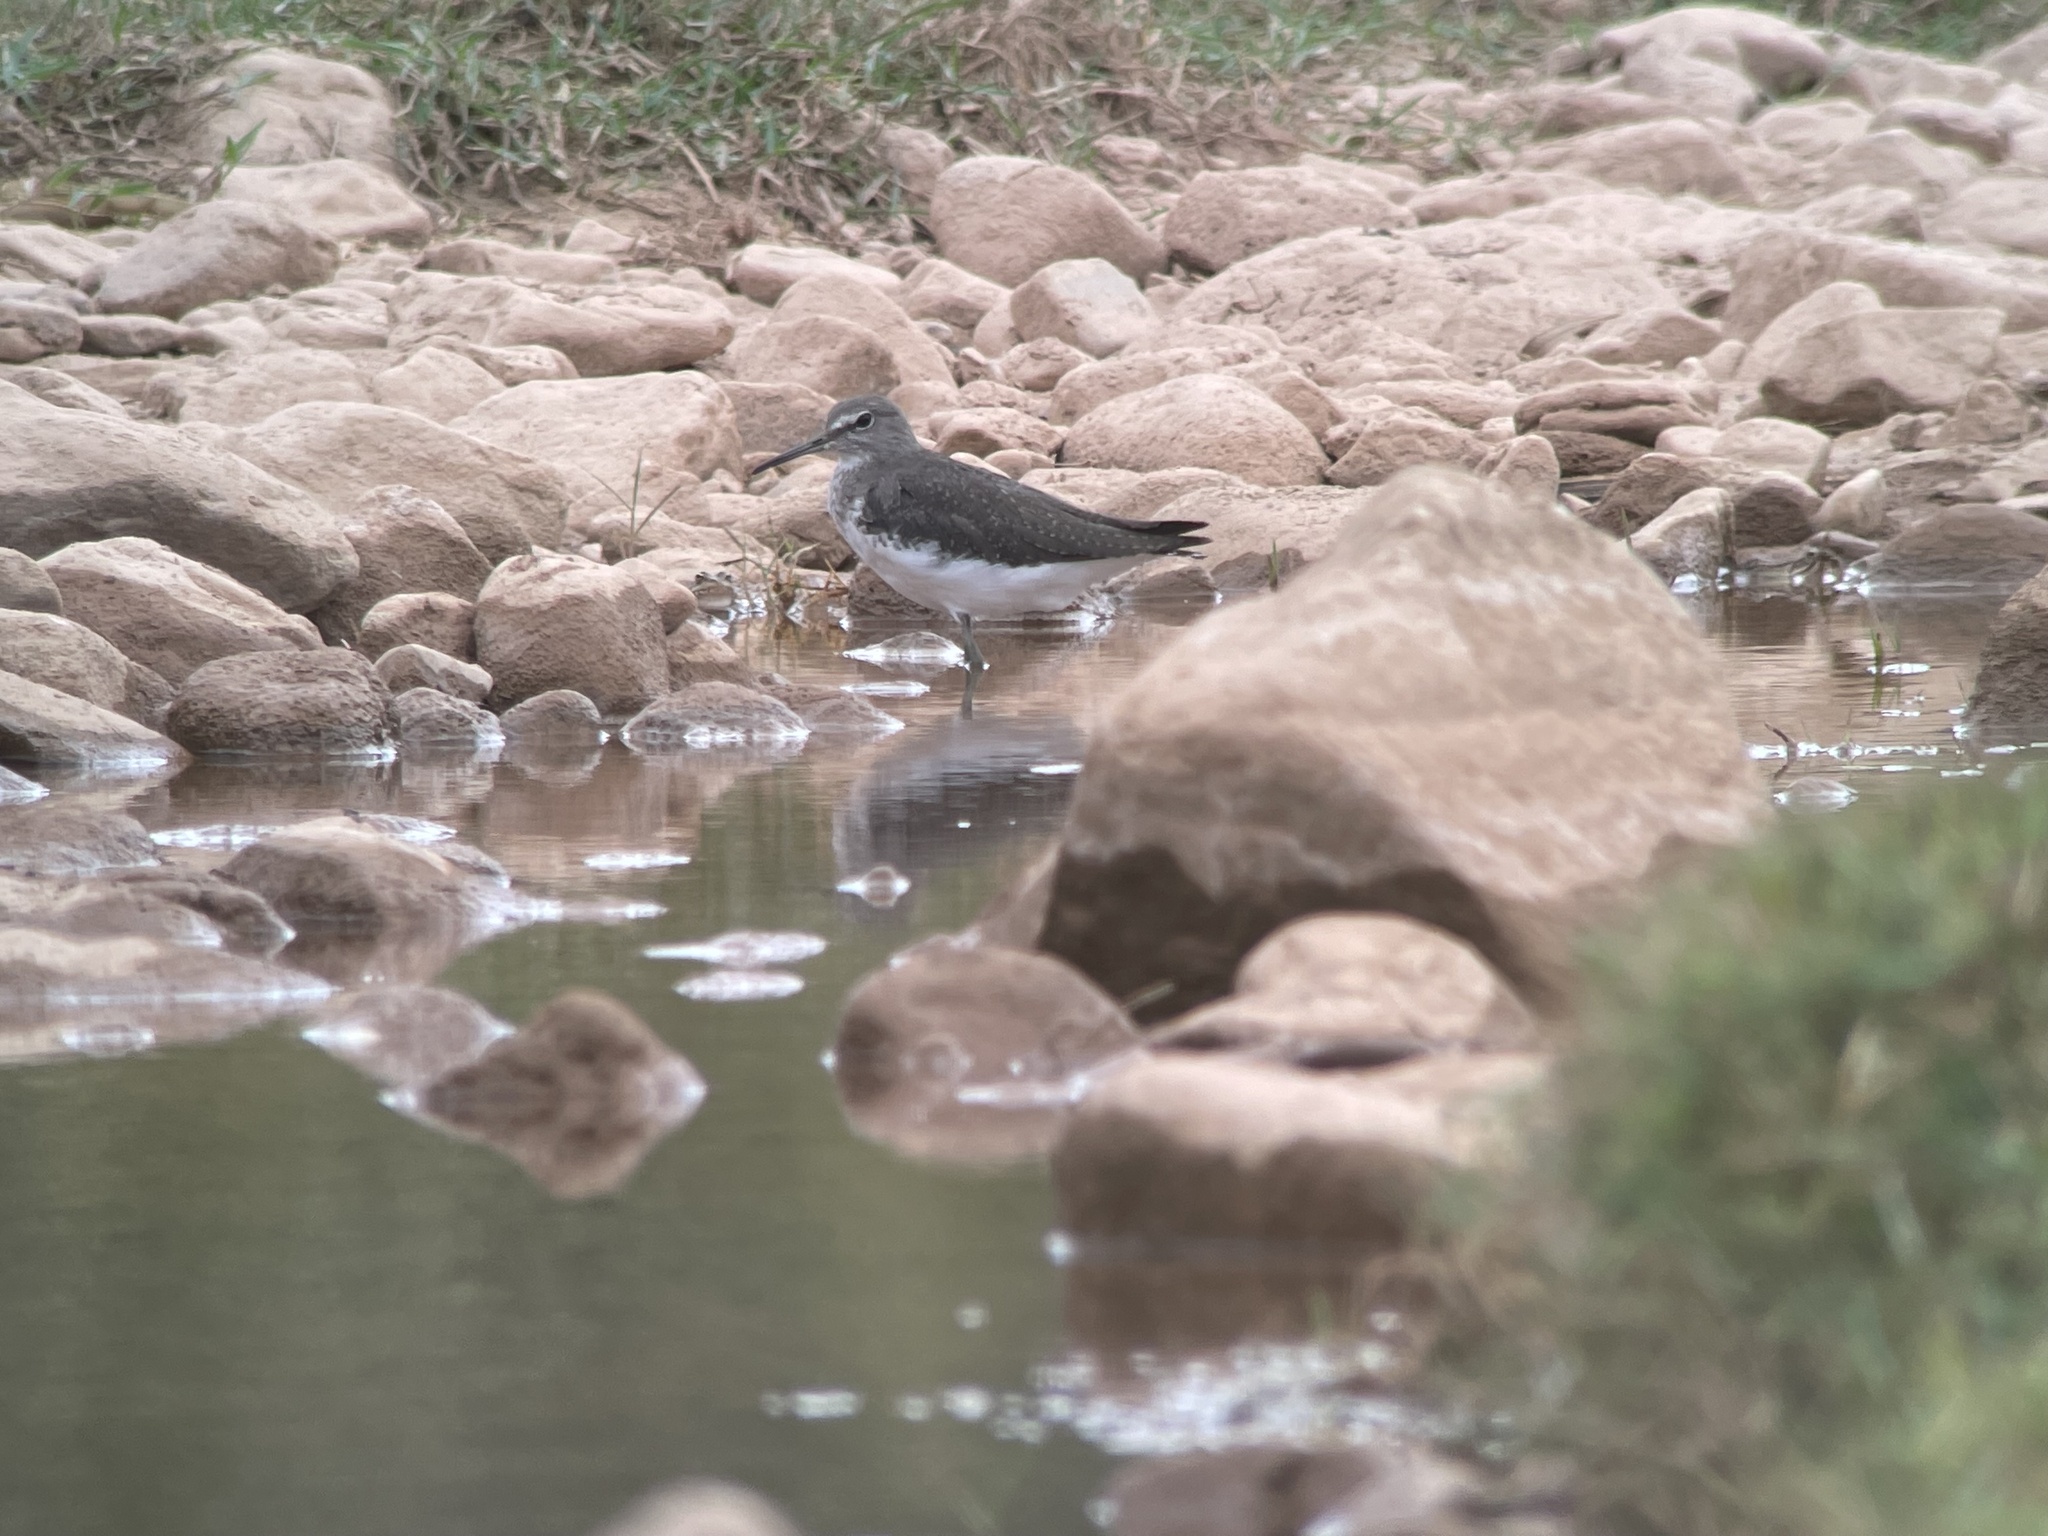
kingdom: Animalia
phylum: Chordata
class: Aves
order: Charadriiformes
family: Scolopacidae
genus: Tringa
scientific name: Tringa ochropus
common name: Green sandpiper
